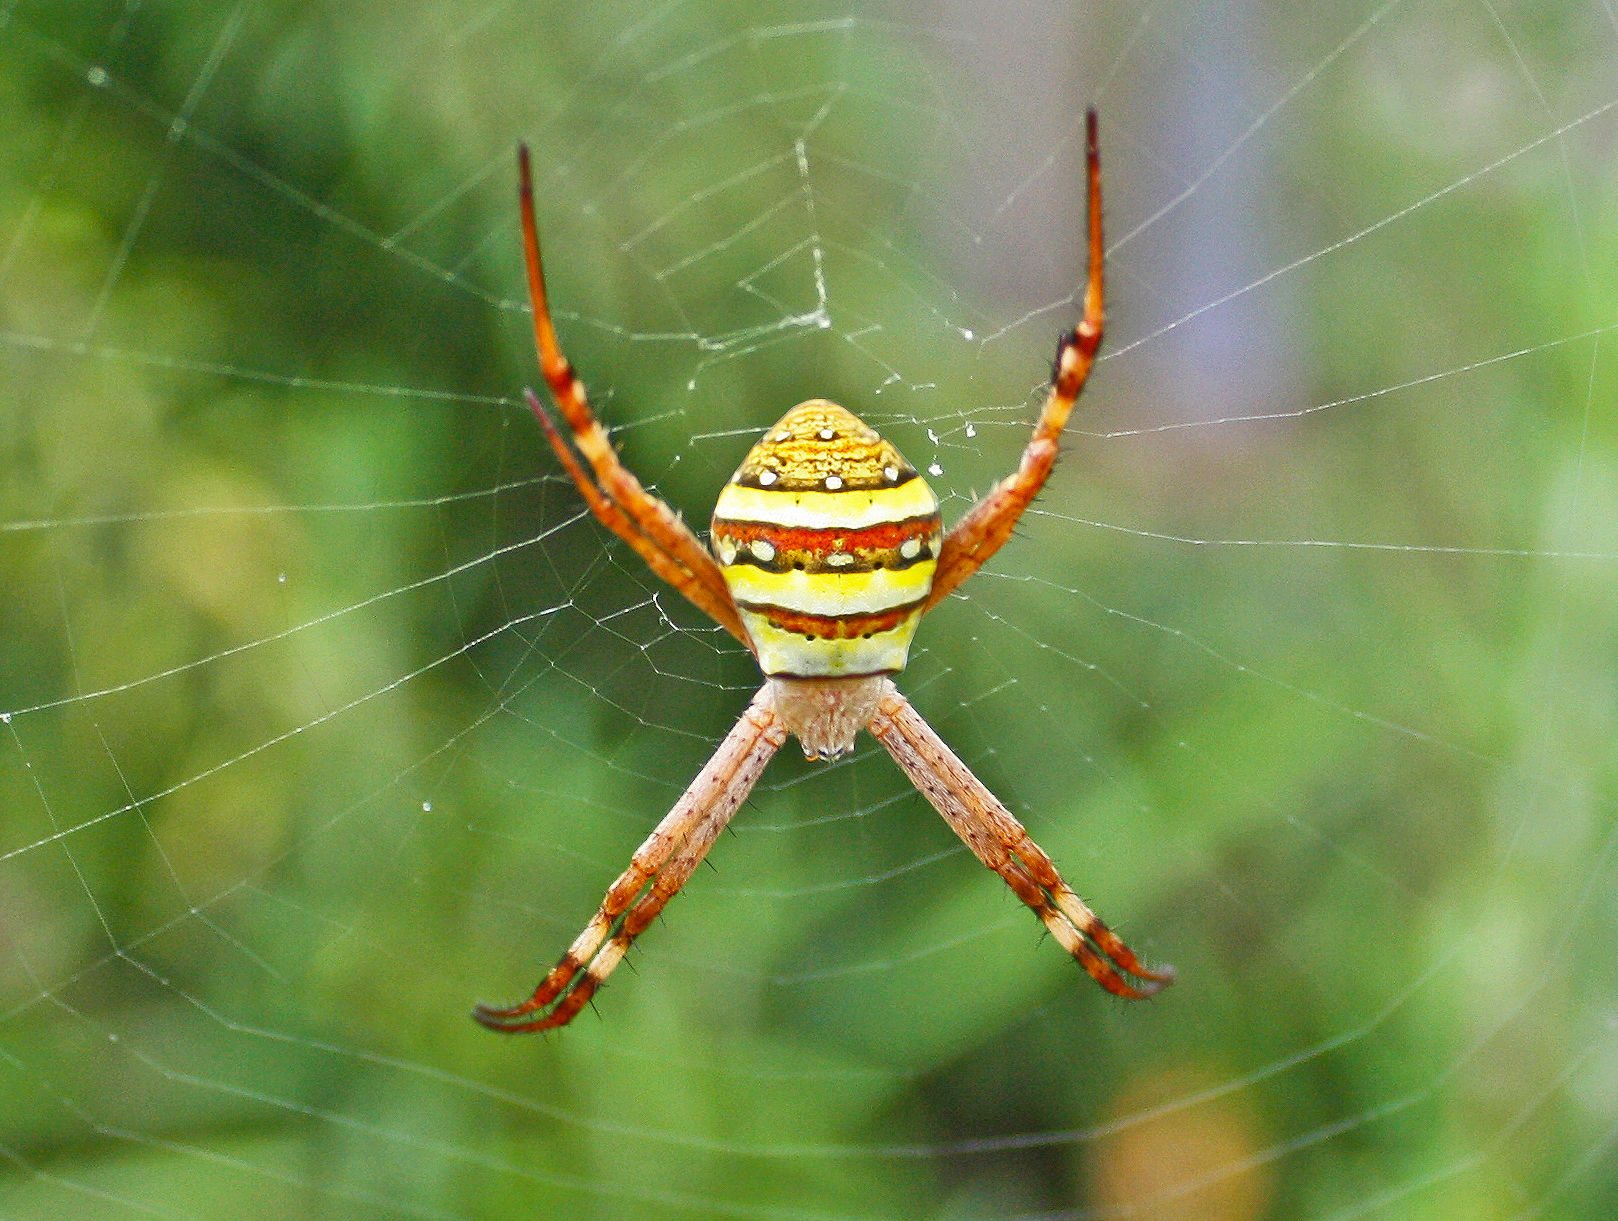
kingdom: Animalia
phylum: Arthropoda
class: Arachnida
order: Araneae
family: Araneidae
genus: Argiope
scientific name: Argiope keyserlingi
